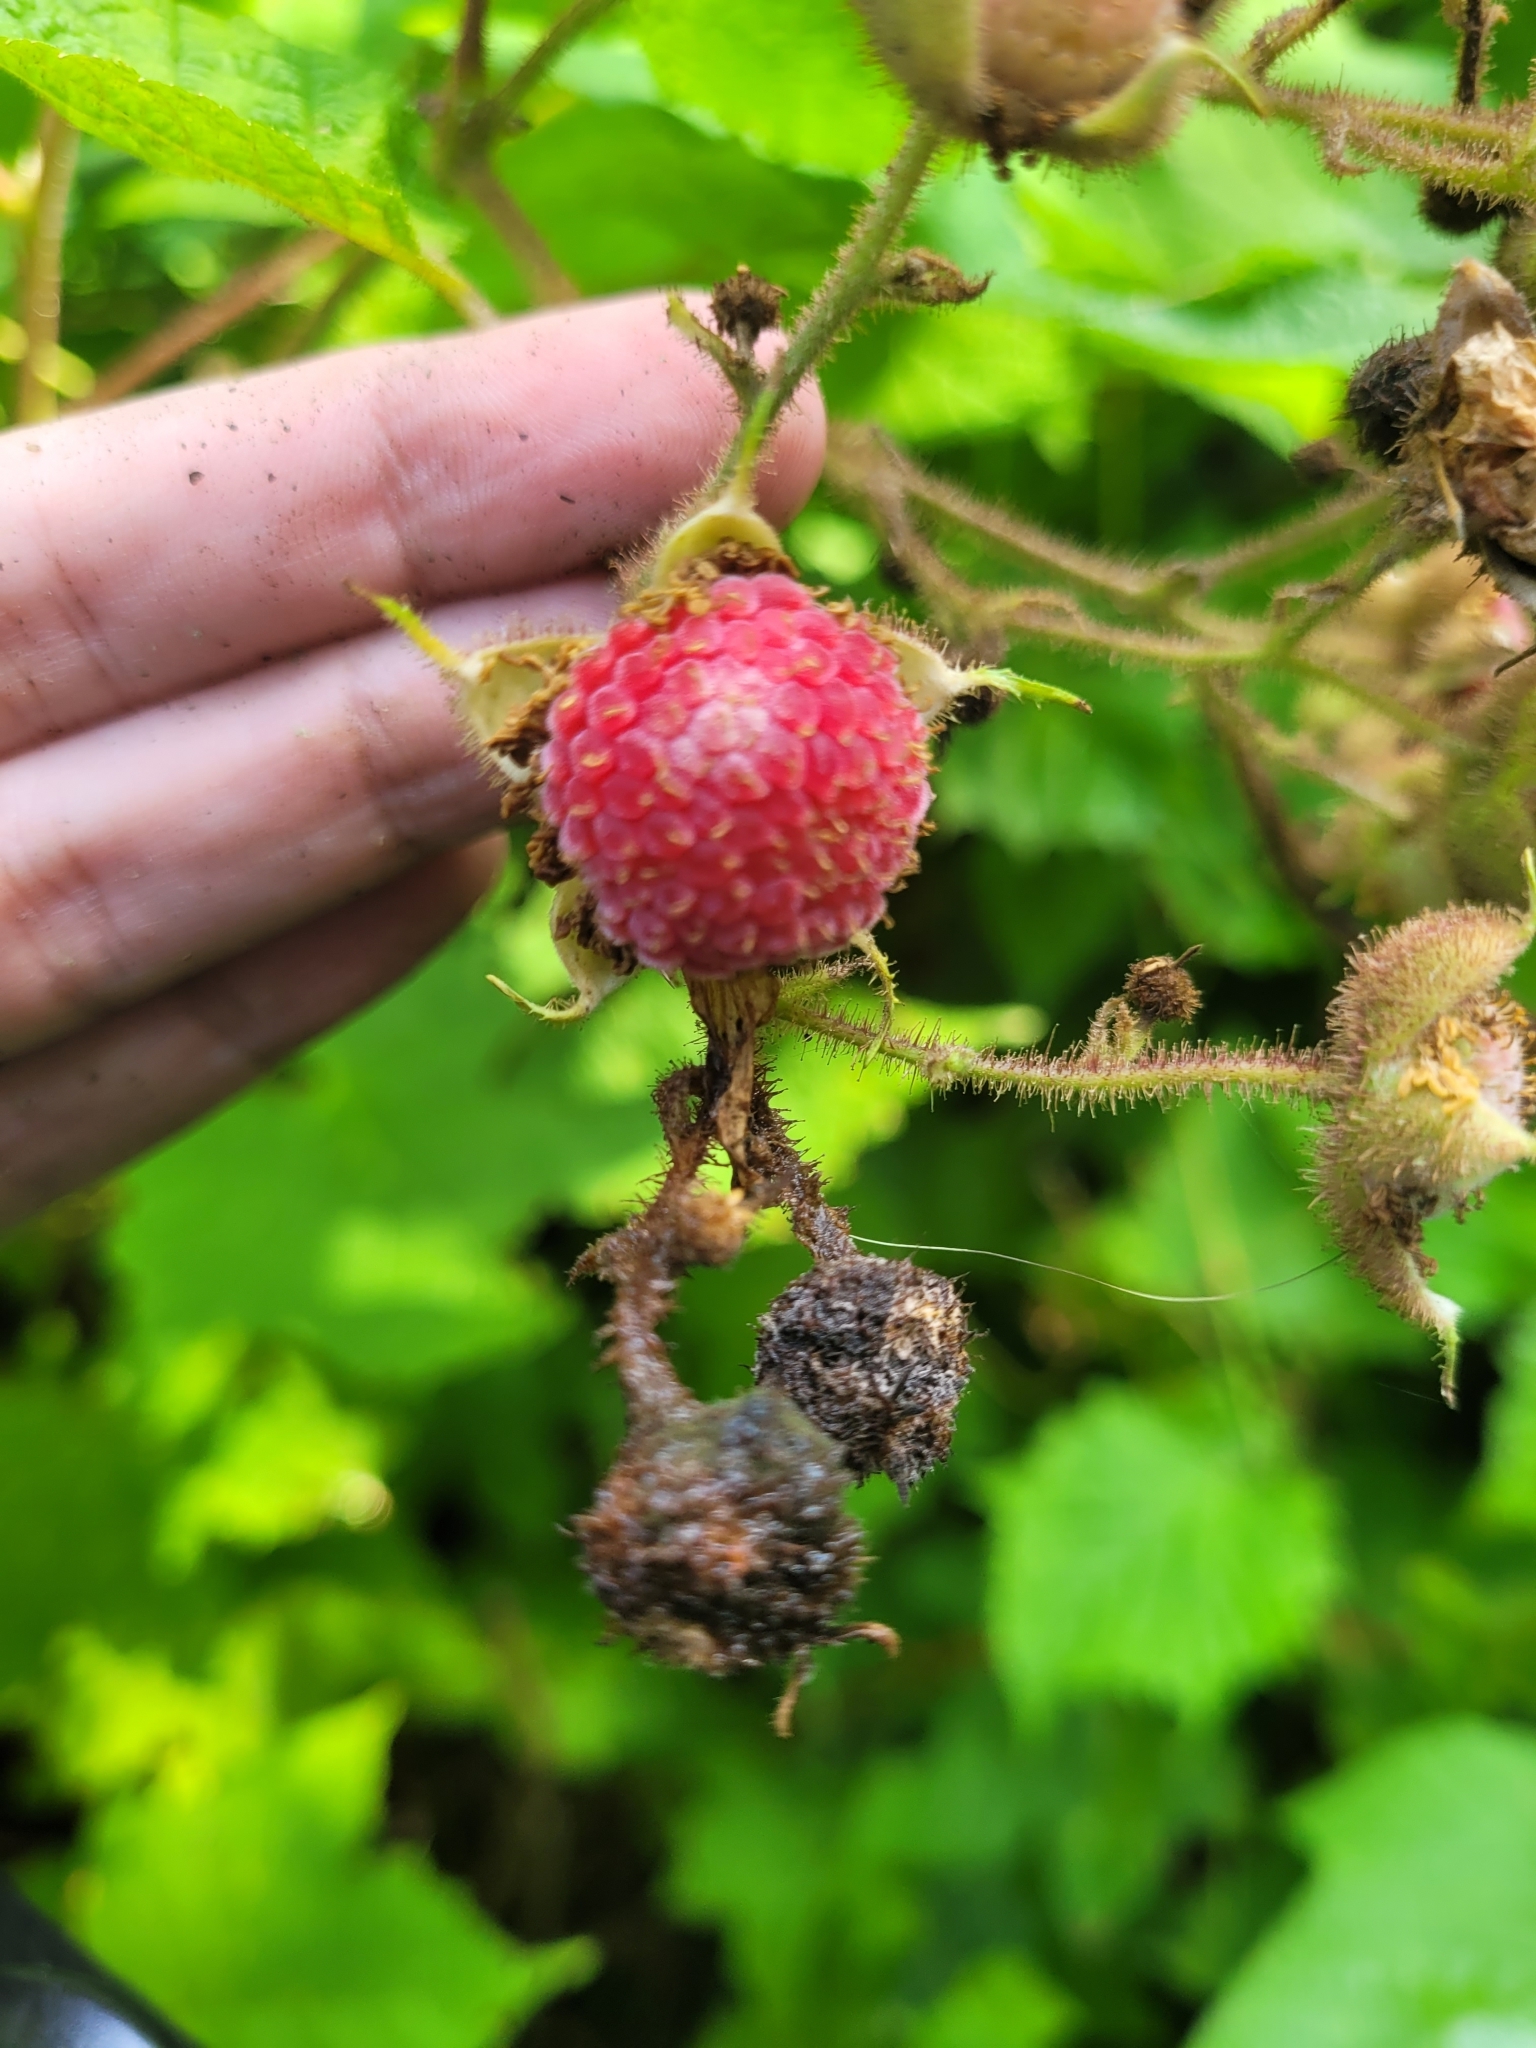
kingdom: Plantae
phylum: Tracheophyta
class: Magnoliopsida
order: Rosales
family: Rosaceae
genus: Rubus
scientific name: Rubus odoratus
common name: Purple-flowered raspberry
